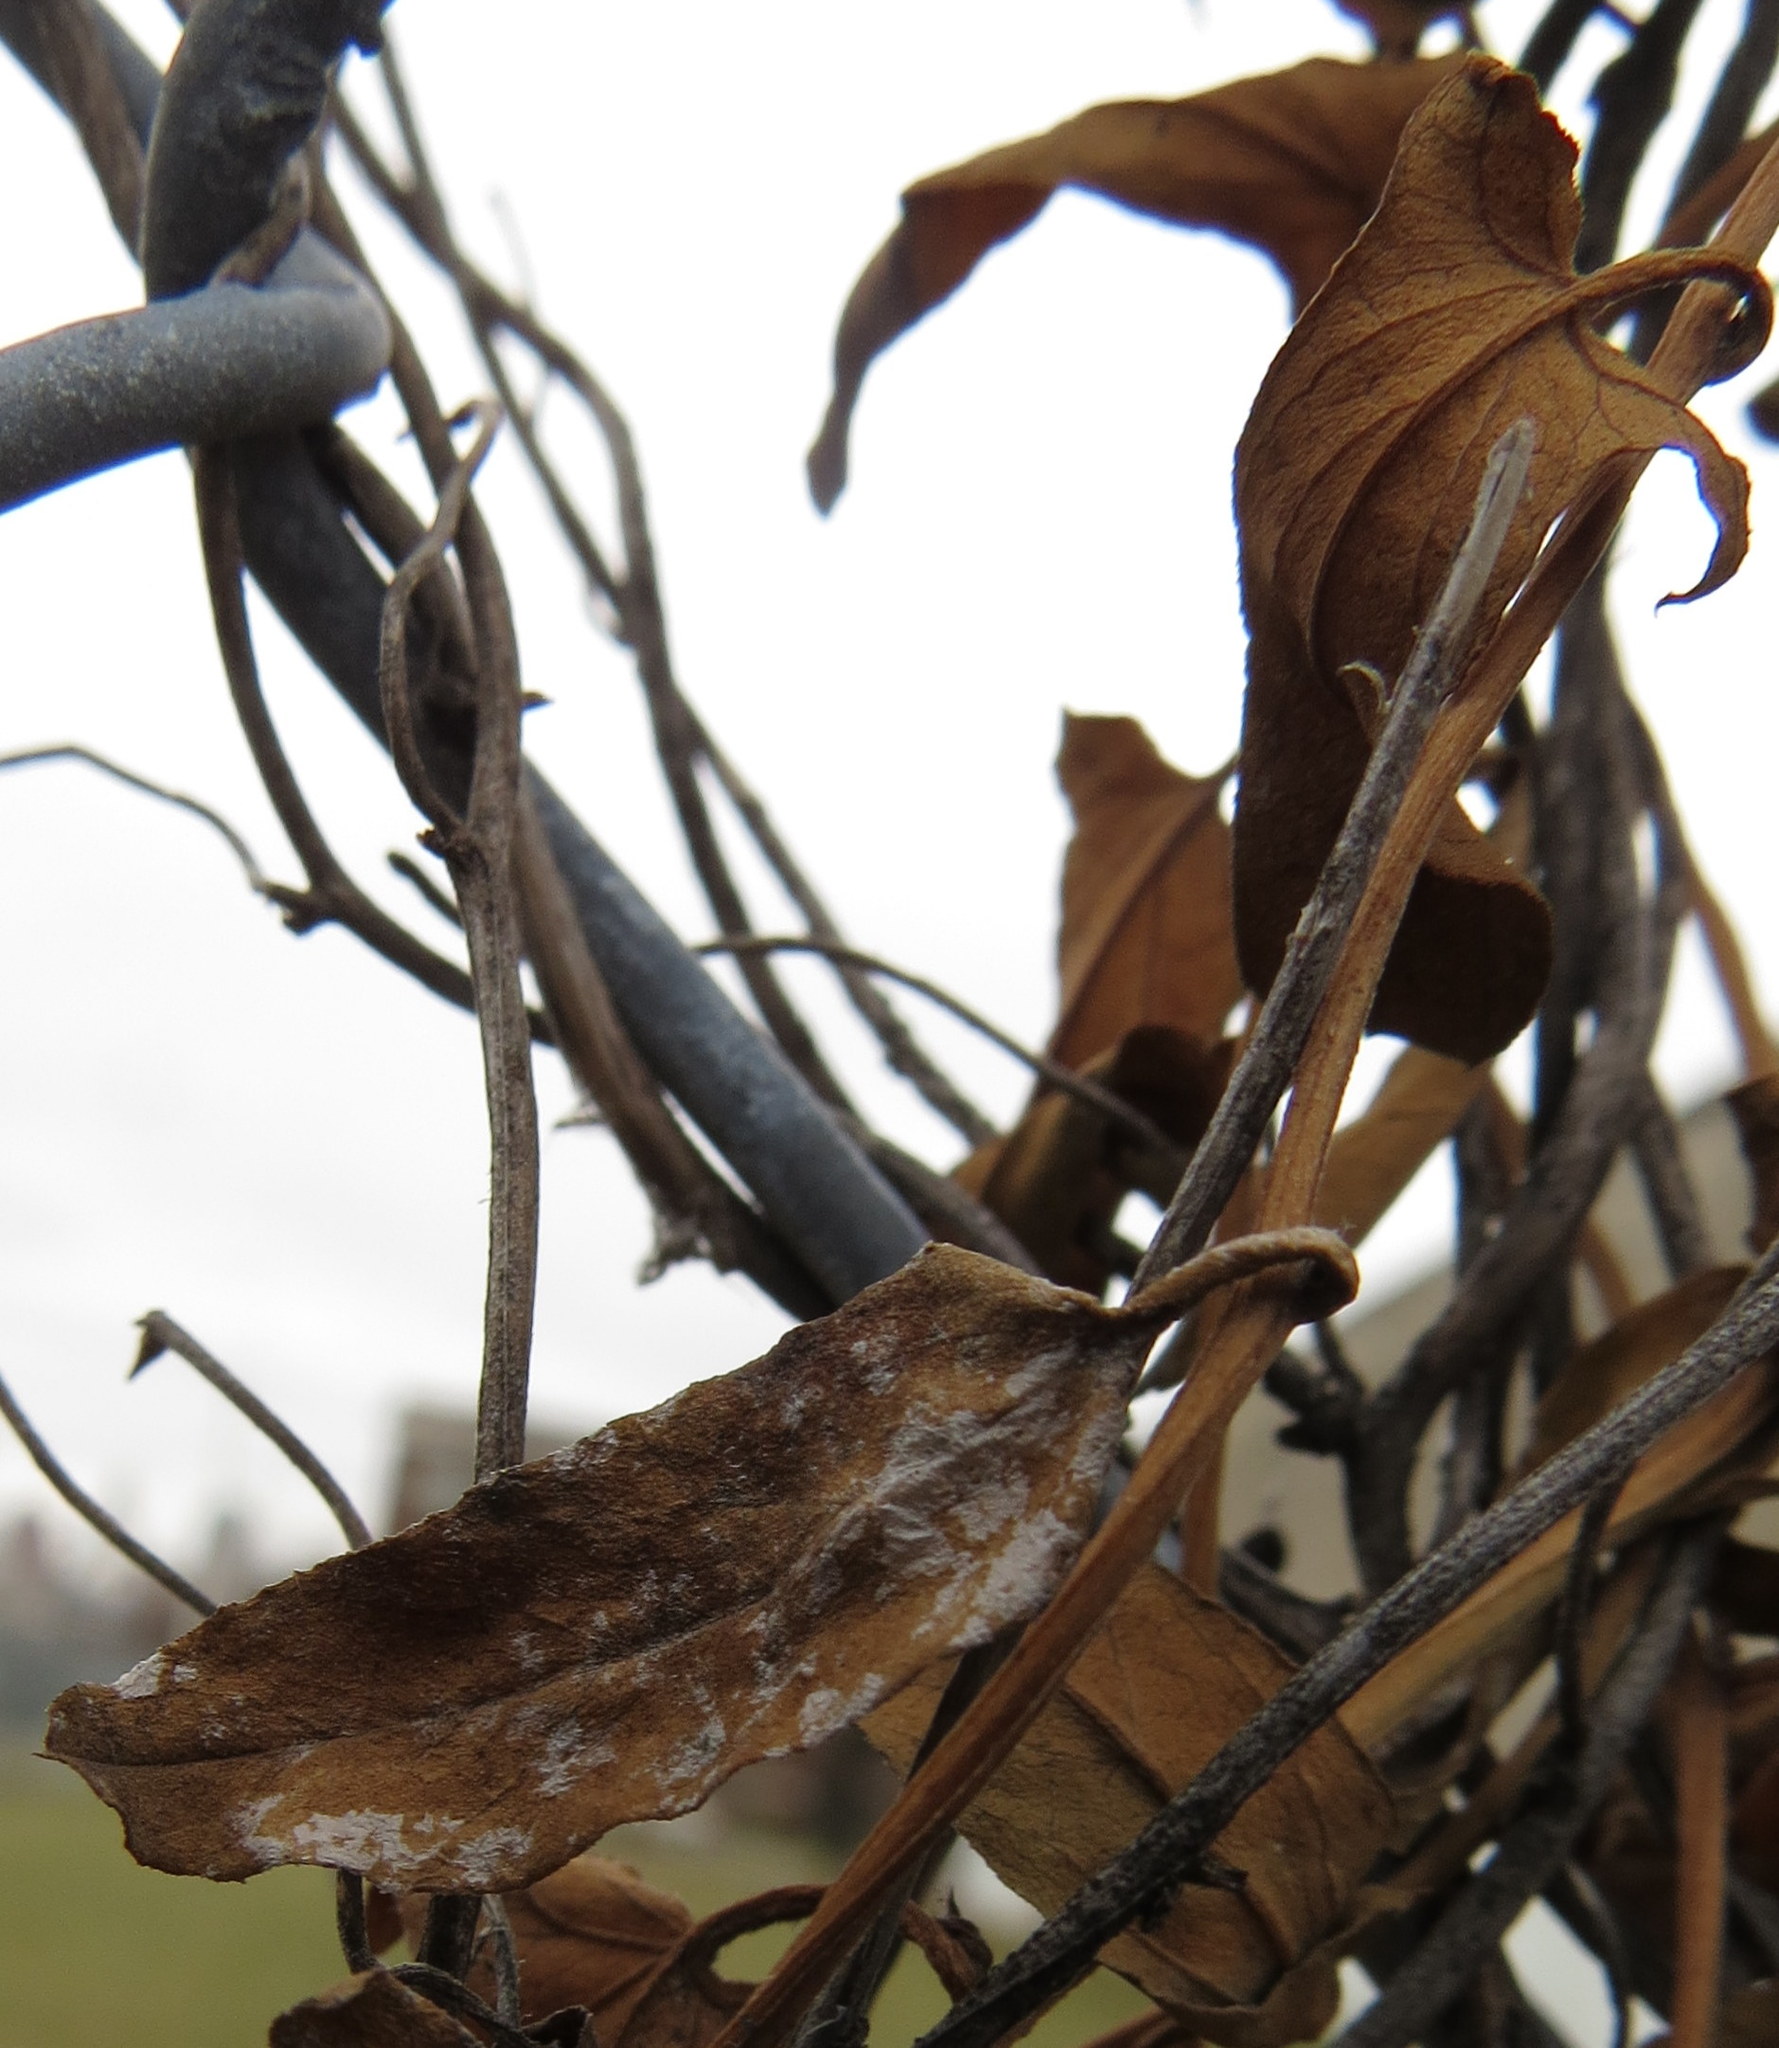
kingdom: Plantae
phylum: Tracheophyta
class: Magnoliopsida
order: Solanales
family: Convolvulaceae
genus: Calystegia
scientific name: Calystegia sepium
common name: Hedge bindweed
